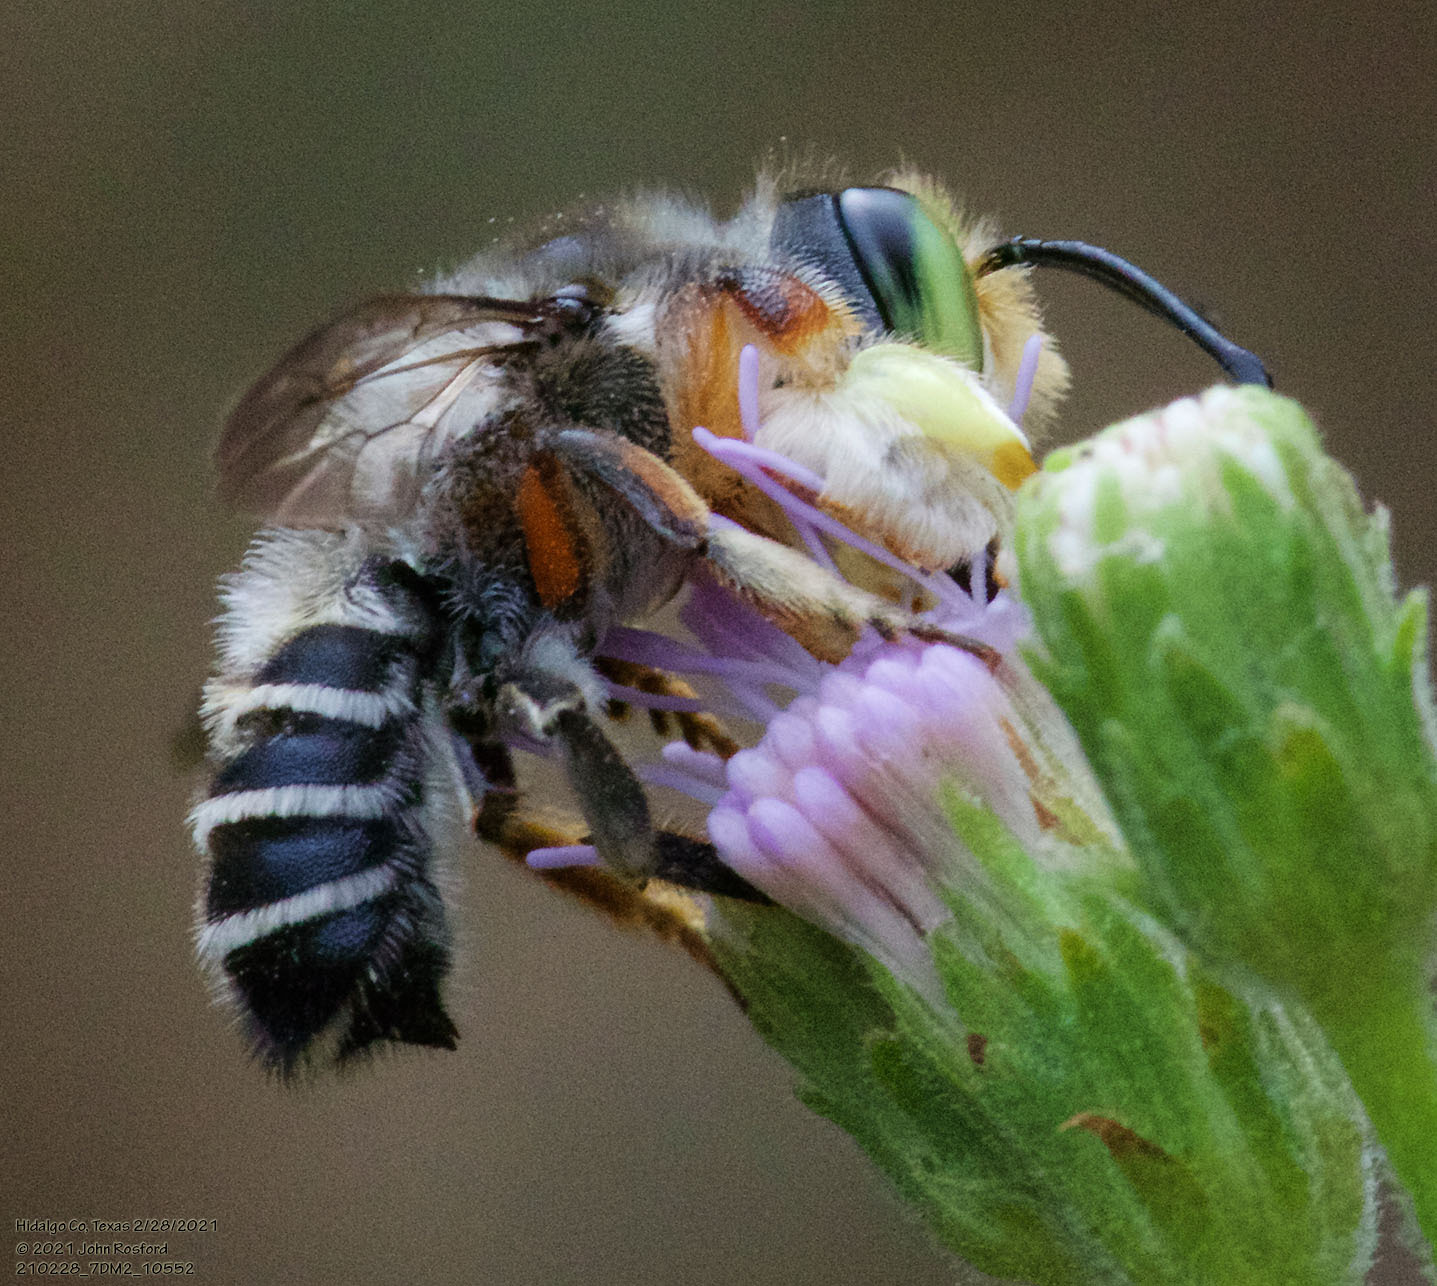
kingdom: Animalia
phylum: Arthropoda
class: Insecta
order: Hymenoptera
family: Megachilidae
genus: Megachile
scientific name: Megachile policaris
